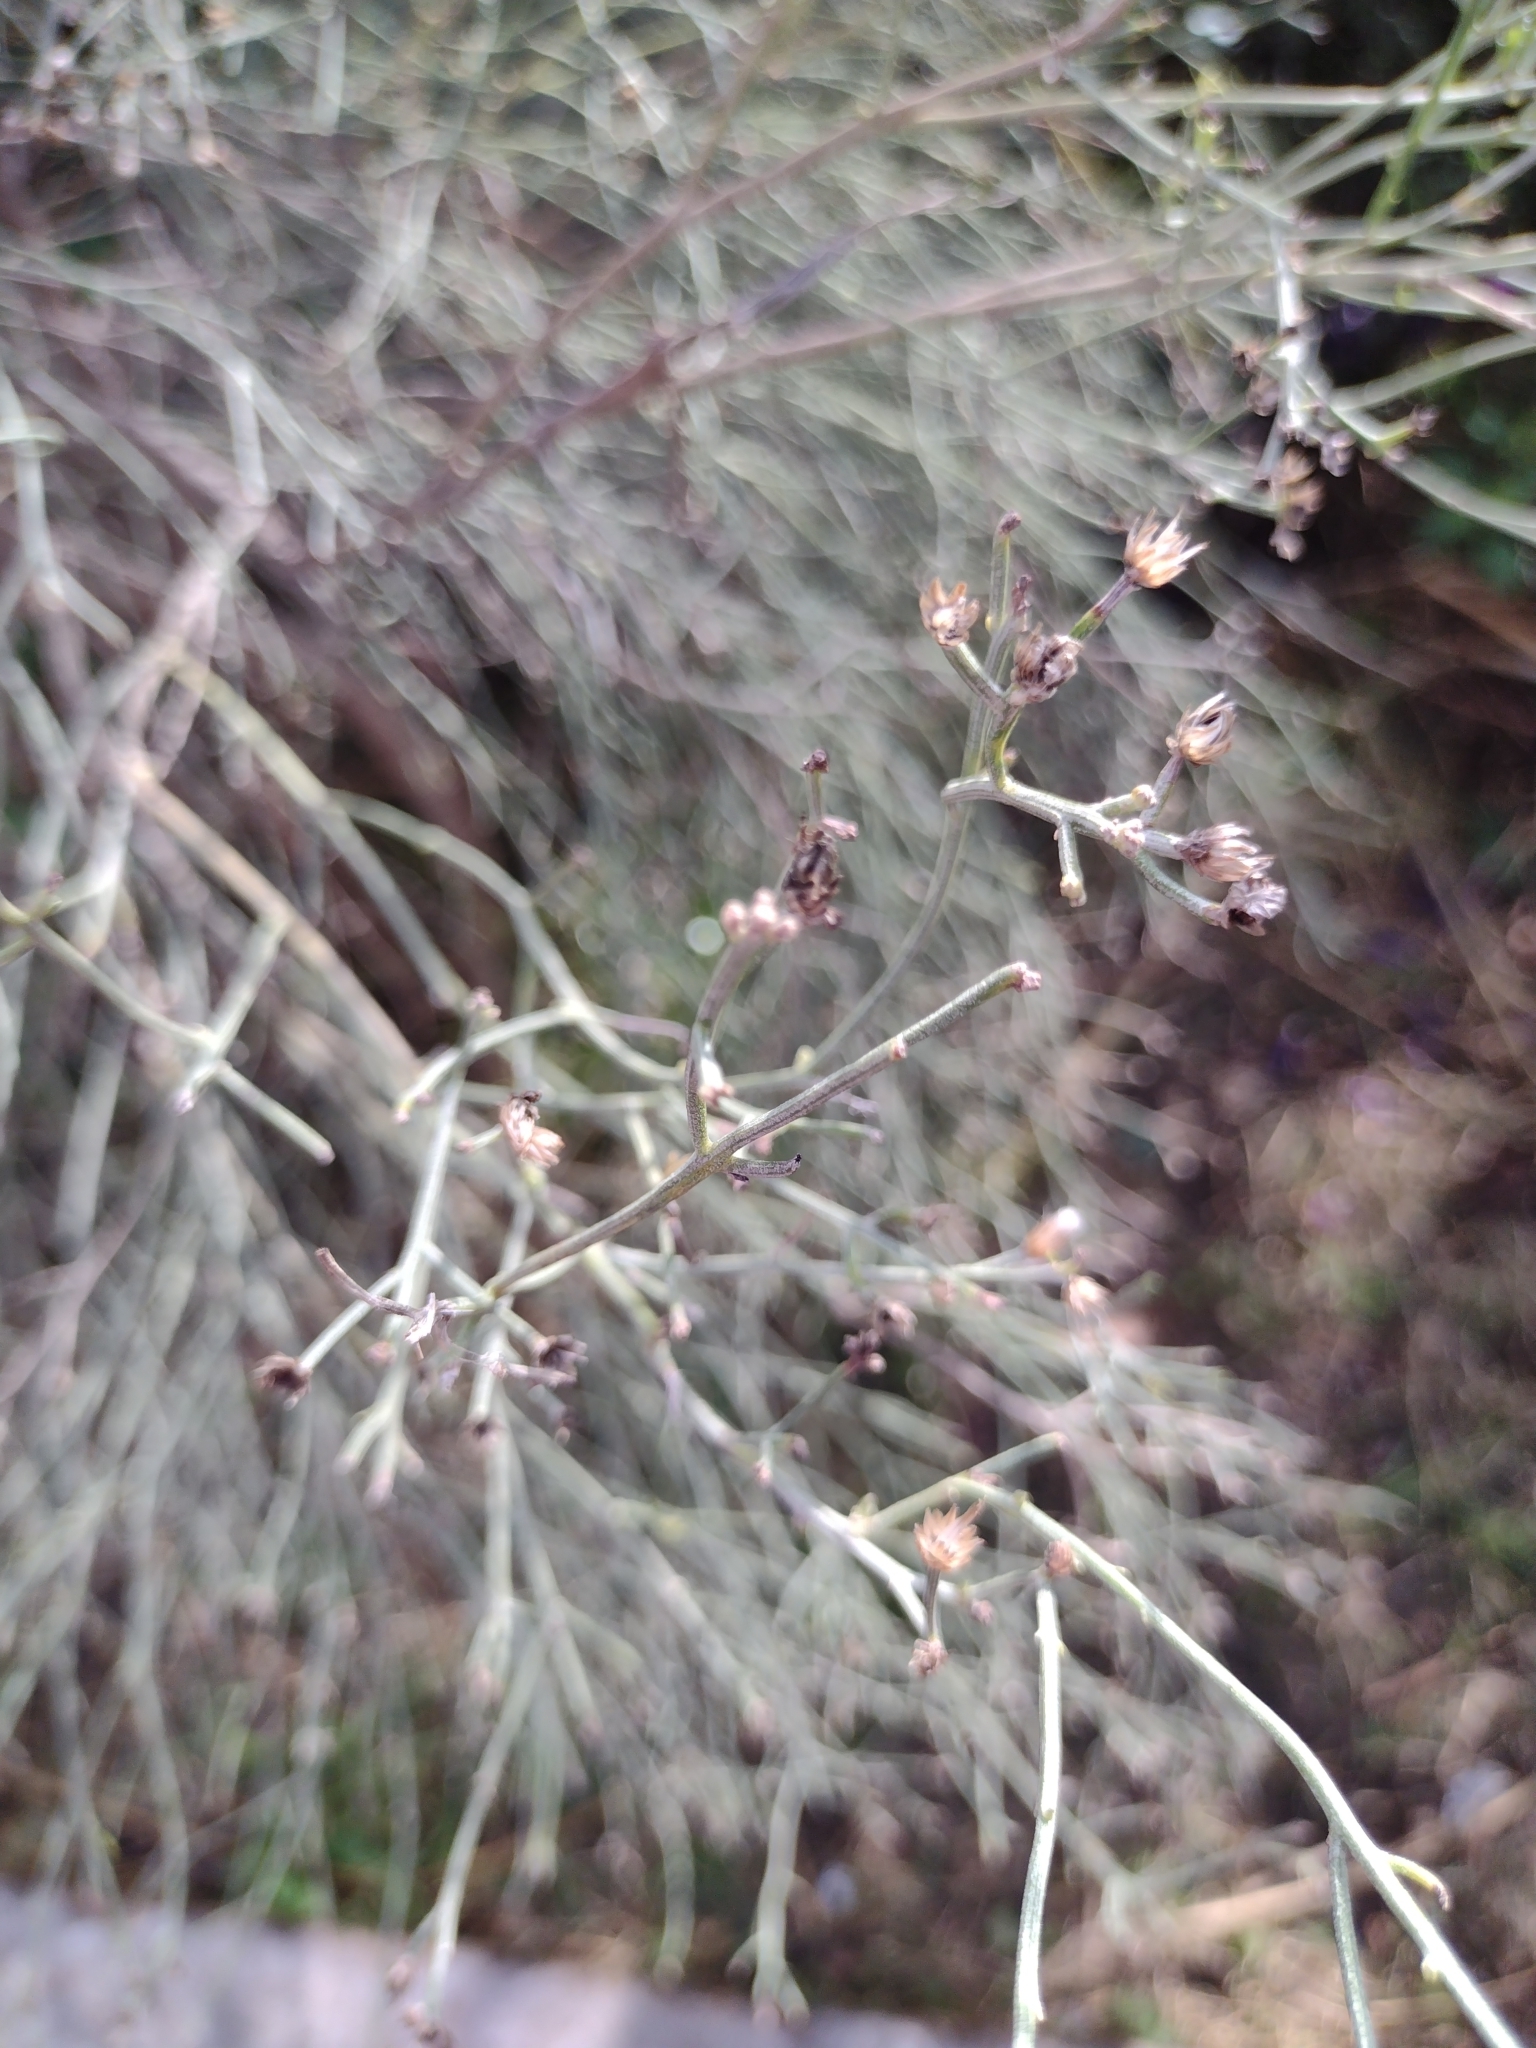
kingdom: Plantae
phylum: Tracheophyta
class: Magnoliopsida
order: Asterales
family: Asteraceae
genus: Baccharis
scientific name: Baccharis notosergila
